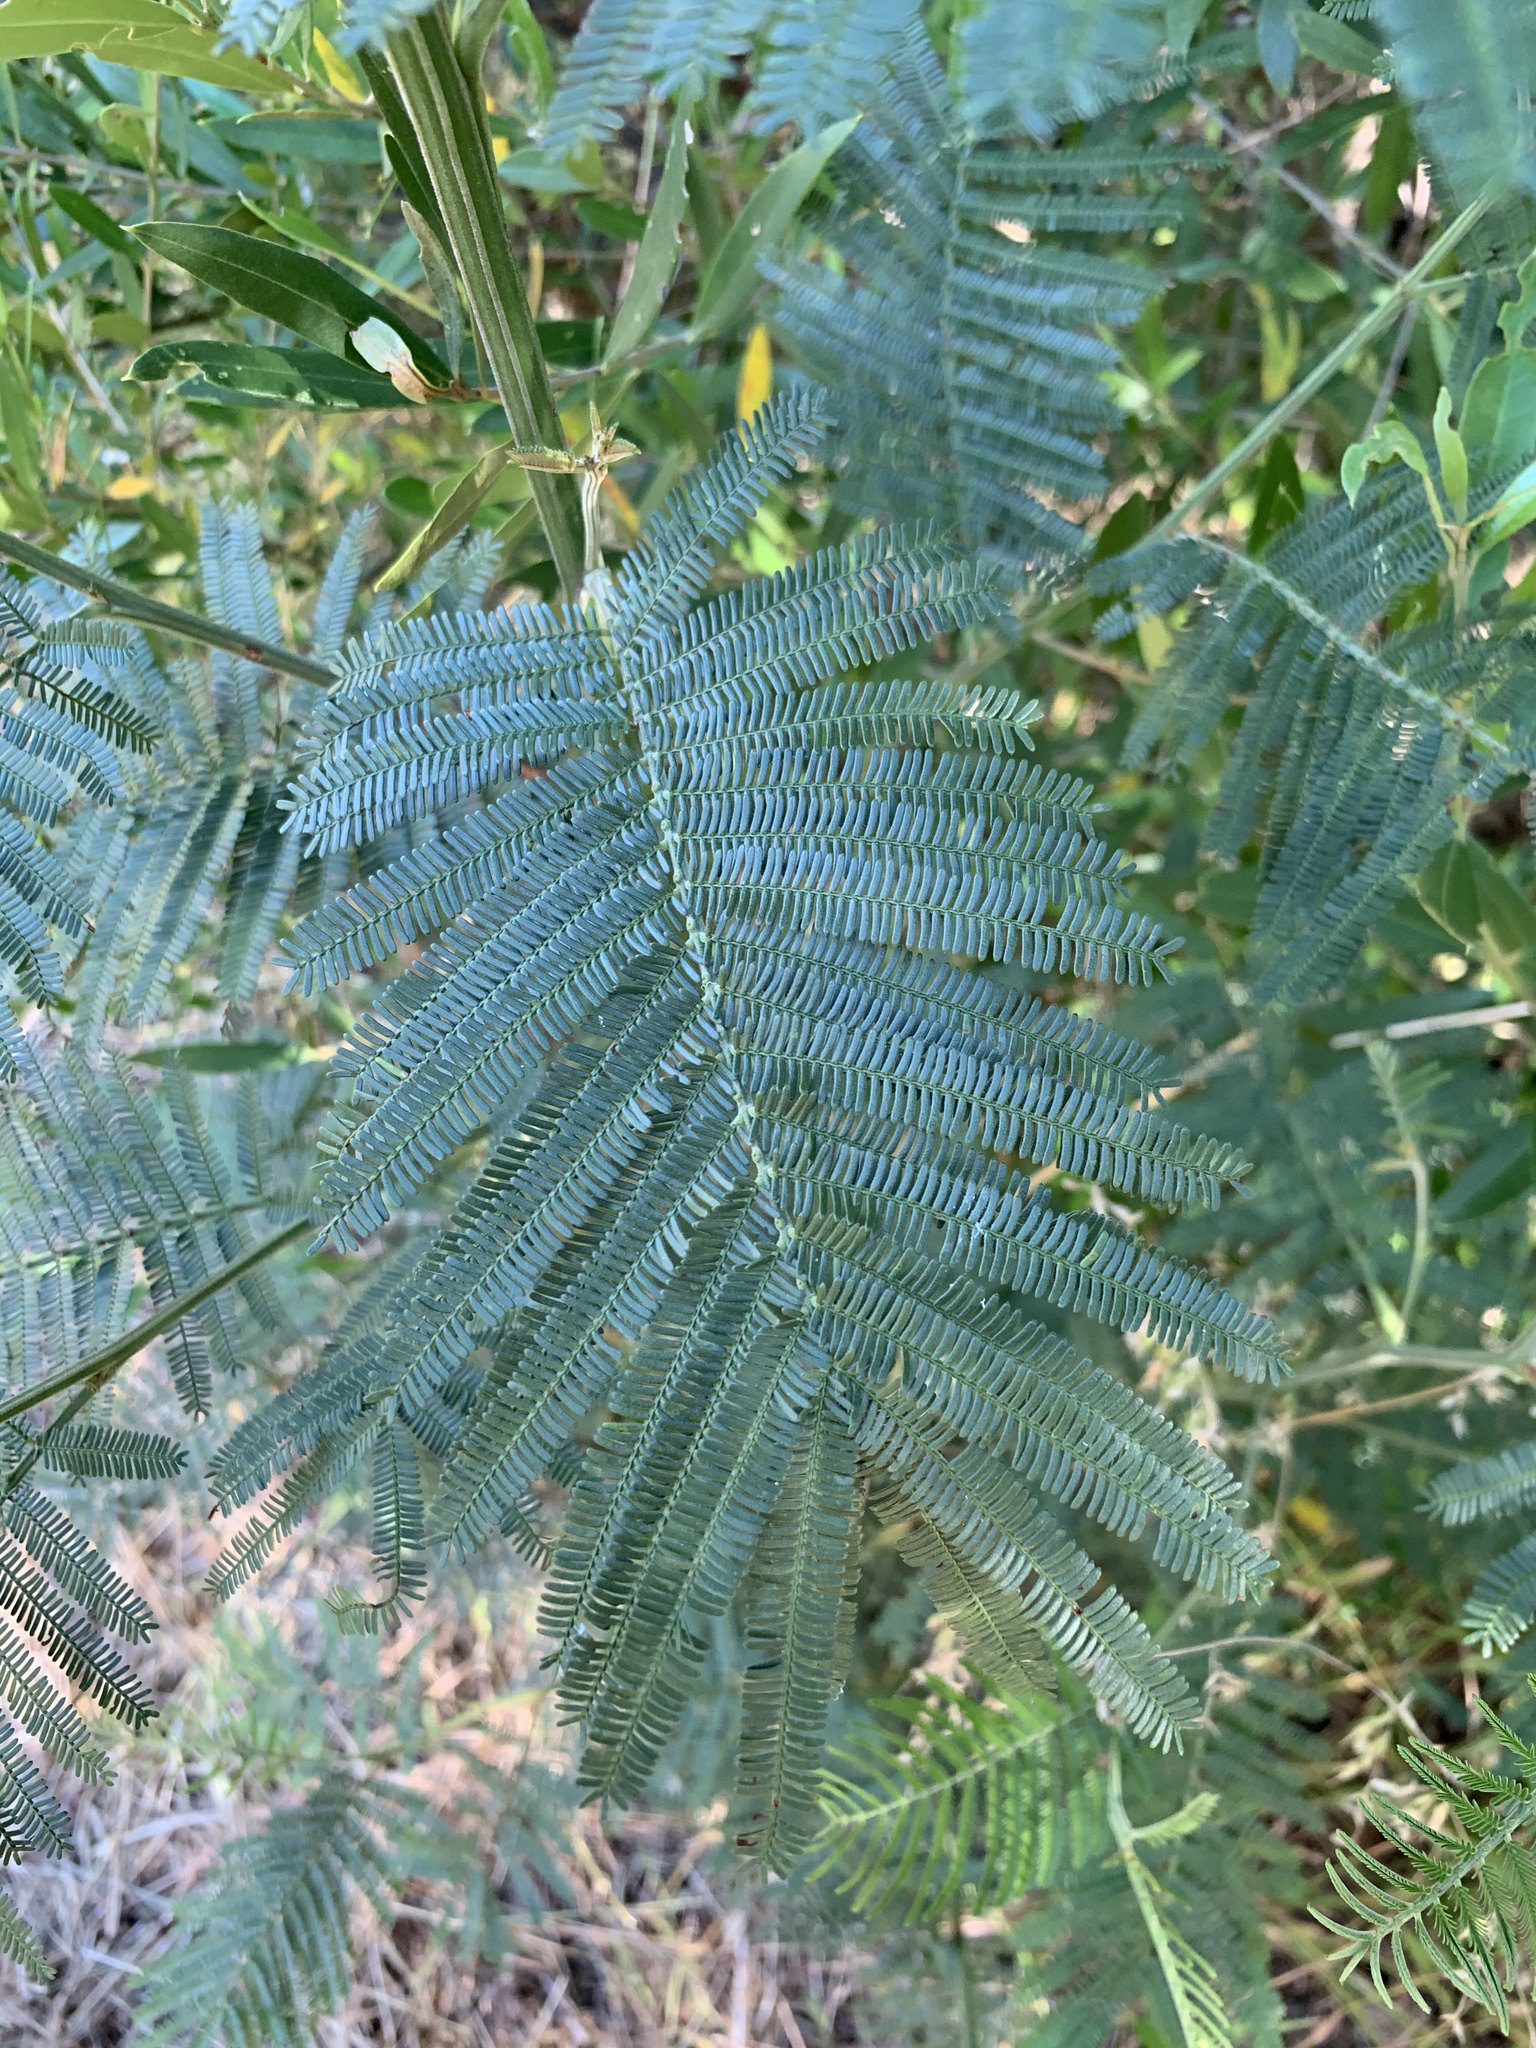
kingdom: Plantae
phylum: Tracheophyta
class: Magnoliopsida
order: Fabales
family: Fabaceae
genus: Acacia
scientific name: Acacia mearnsii
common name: Black wattle
